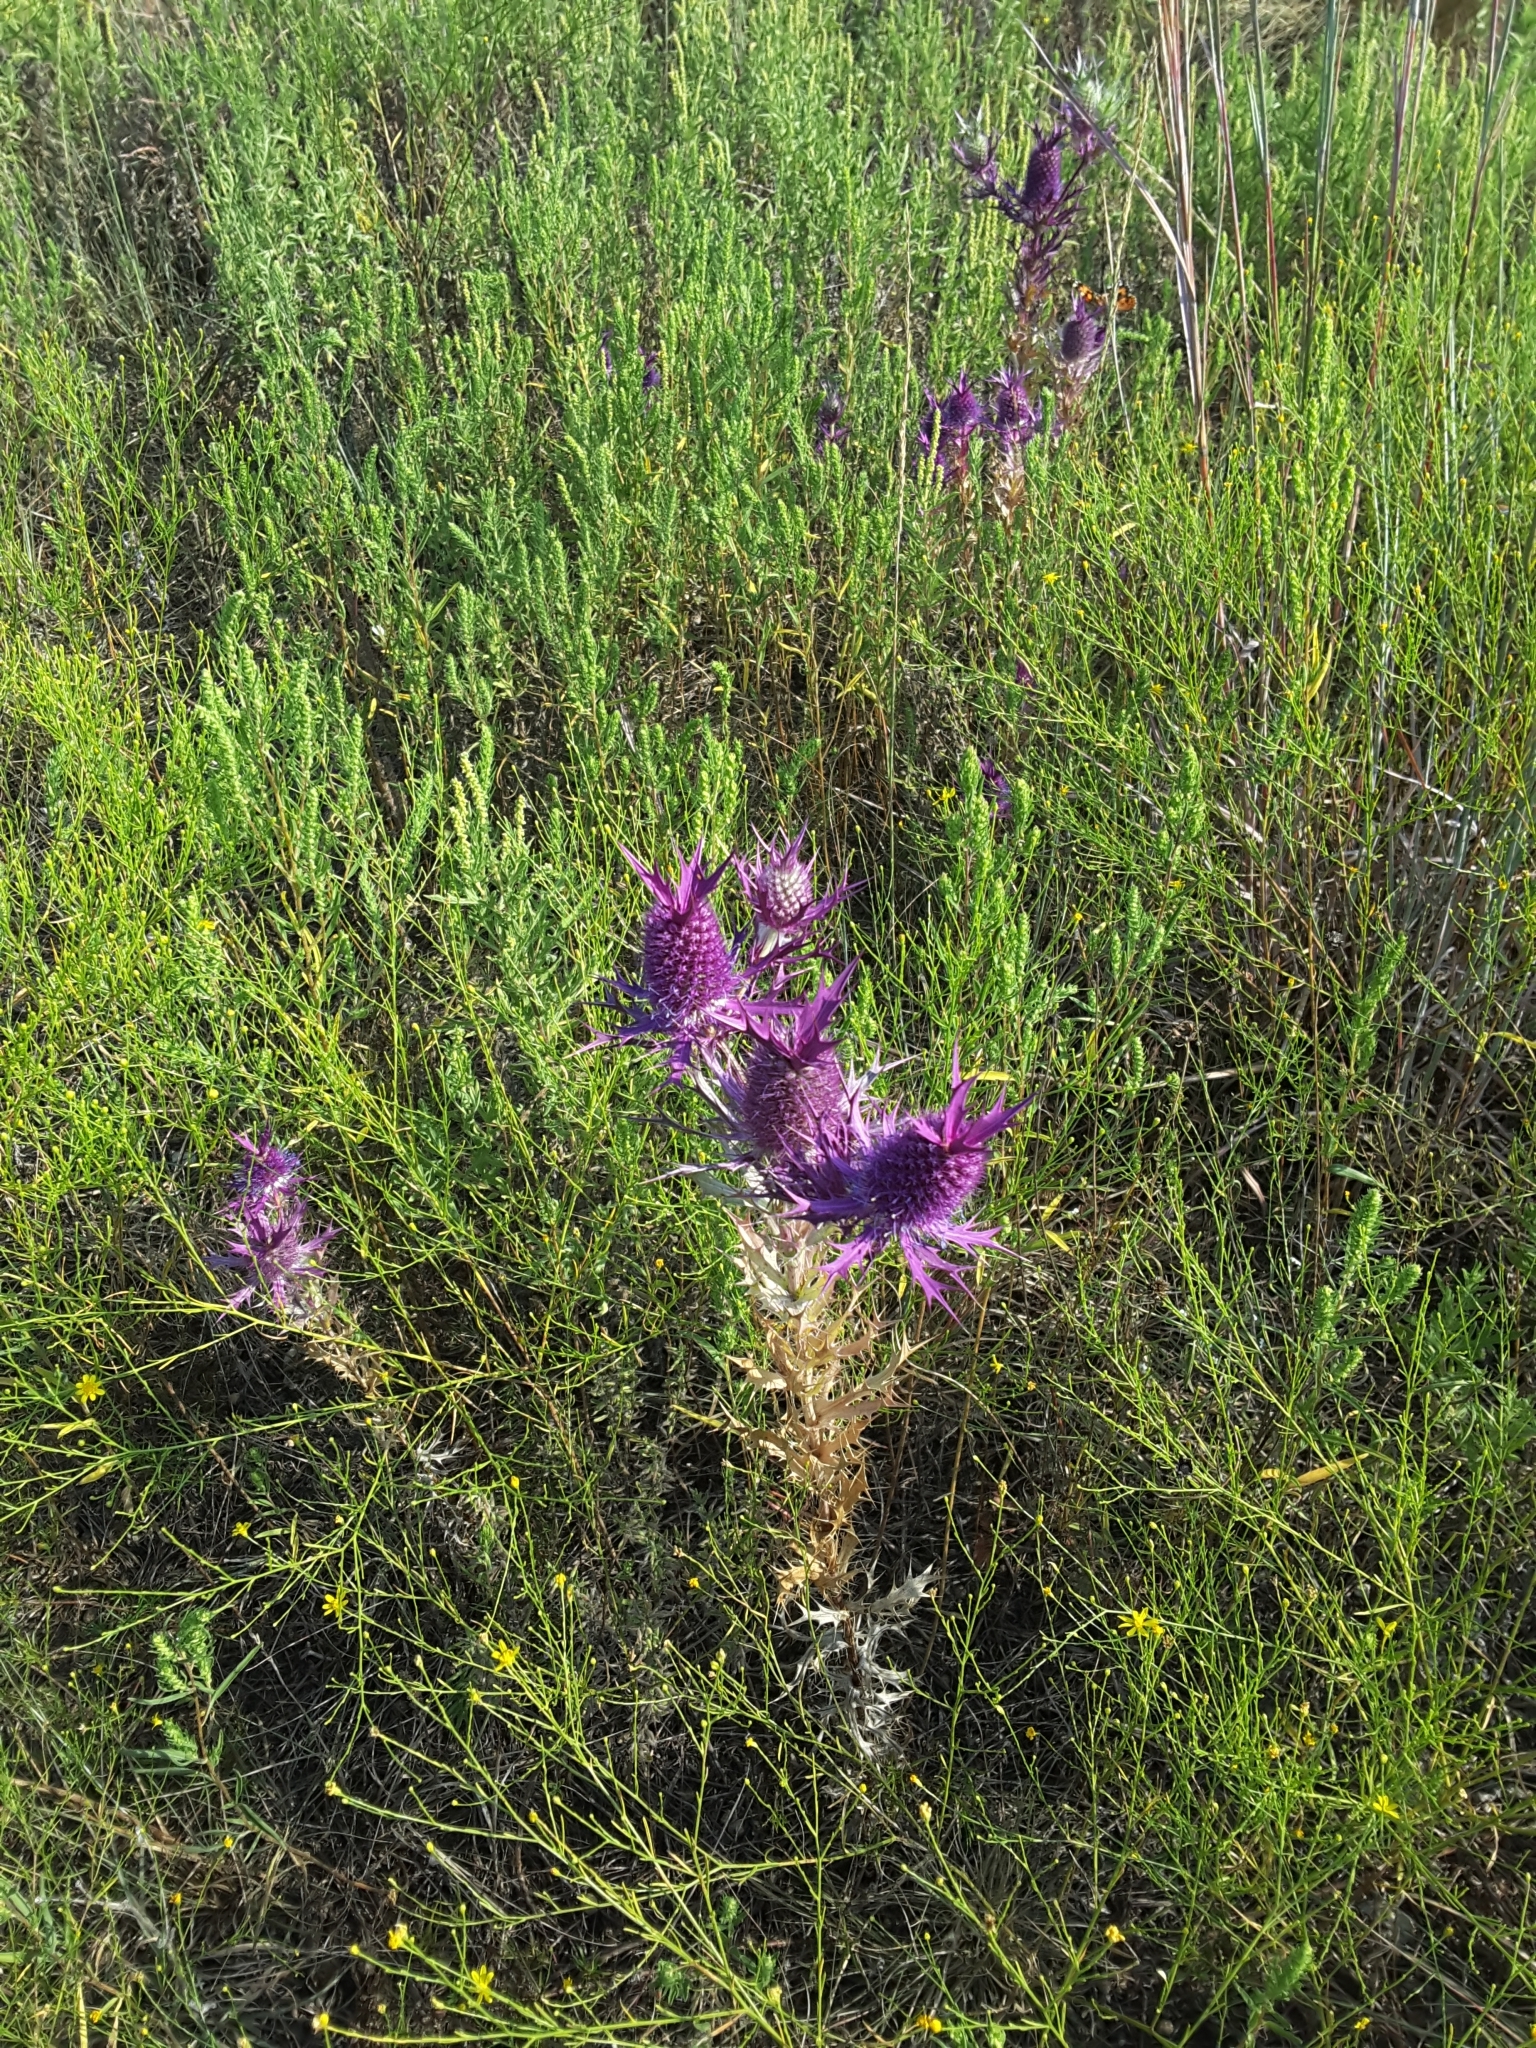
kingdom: Plantae
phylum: Tracheophyta
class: Magnoliopsida
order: Apiales
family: Apiaceae
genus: Eryngium
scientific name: Eryngium leavenworthii
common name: Leavenworth's eryngo
